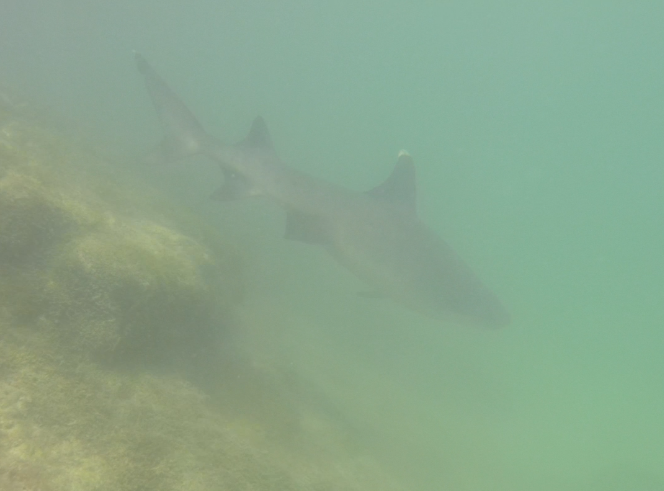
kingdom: Animalia
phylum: Chordata
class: Elasmobranchii
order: Carcharhiniformes
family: Carcharhinidae
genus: Triaenodon
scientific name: Triaenodon obesus
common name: Whitetip reef shark
